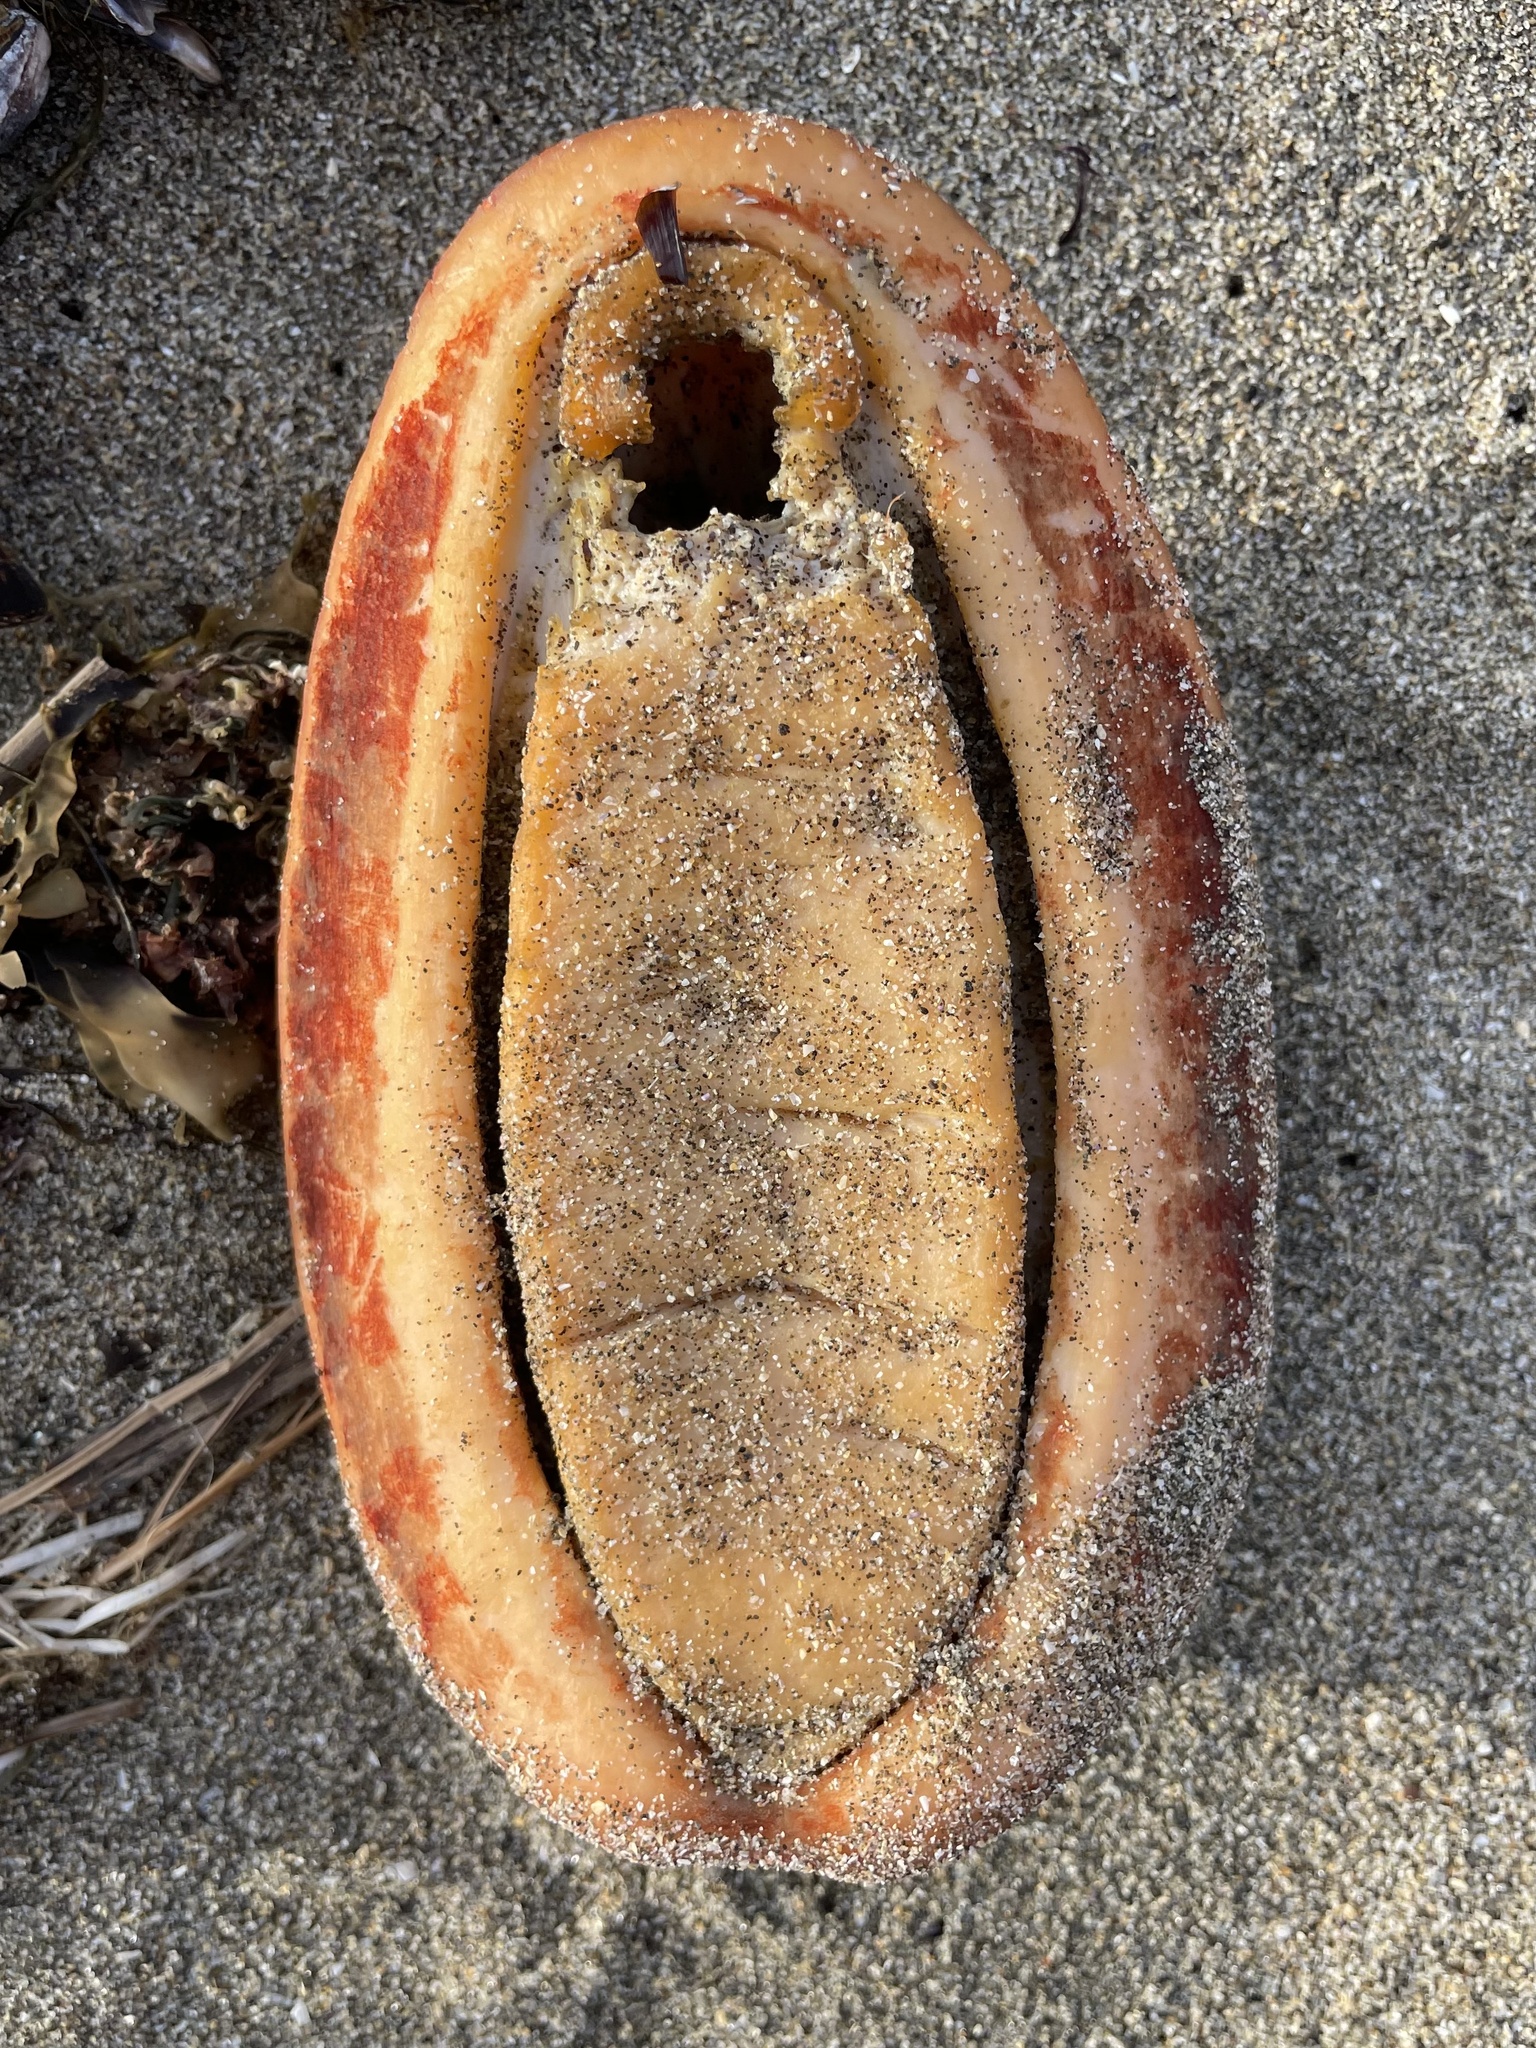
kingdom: Animalia
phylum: Mollusca
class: Polyplacophora
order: Chitonida
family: Acanthochitonidae
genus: Cryptochiton
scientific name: Cryptochiton stelleri
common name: Giant pacific chiton
